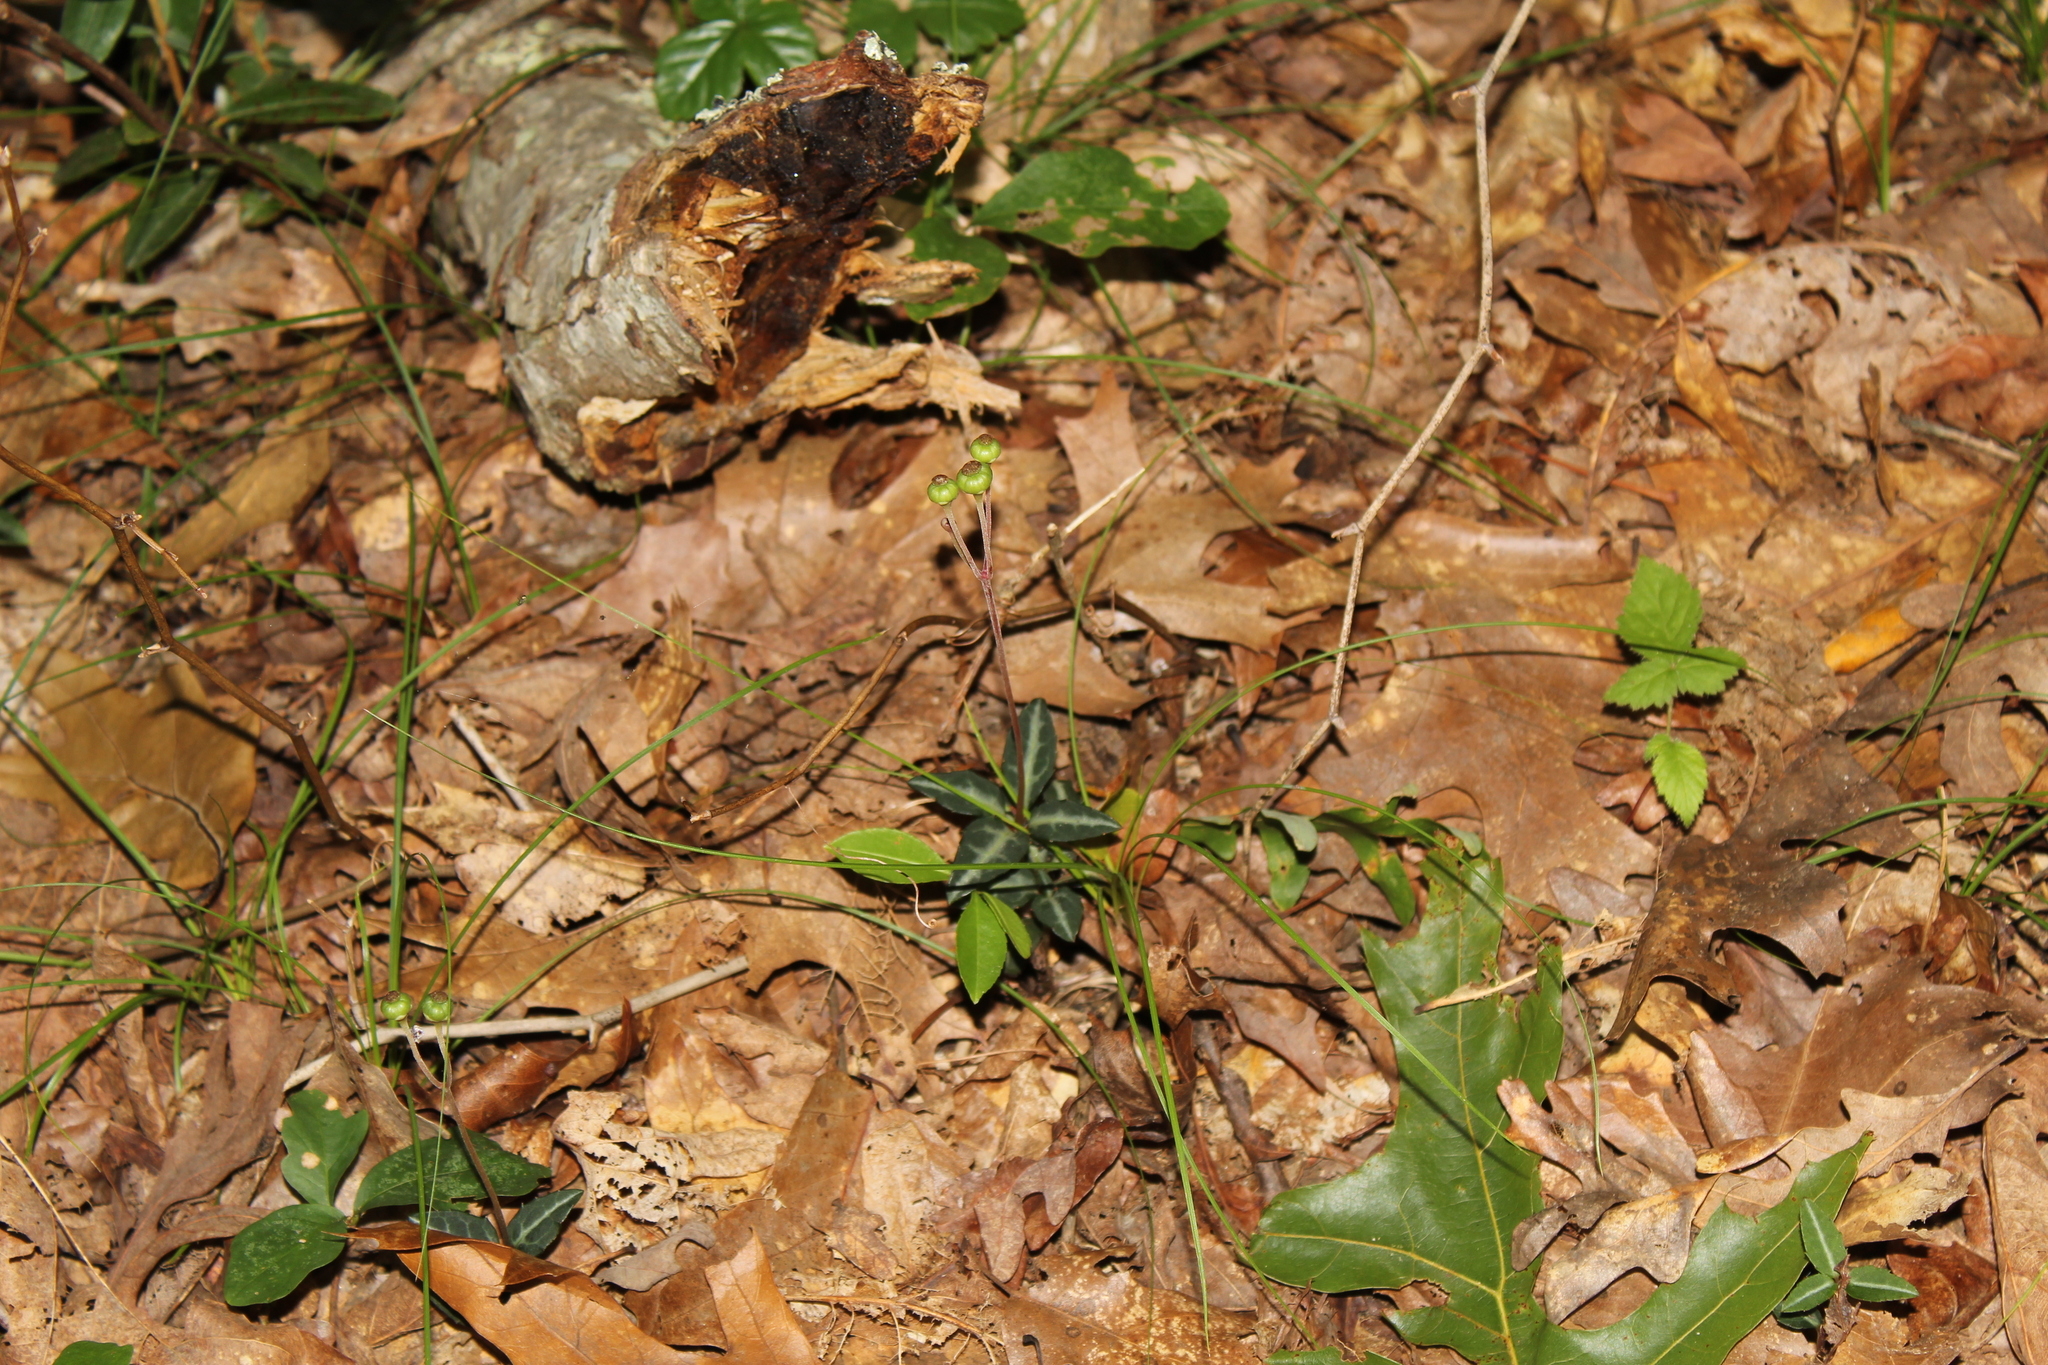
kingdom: Plantae
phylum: Tracheophyta
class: Magnoliopsida
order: Ericales
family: Ericaceae
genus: Chimaphila
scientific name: Chimaphila maculata
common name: Spotted pipsissewa
